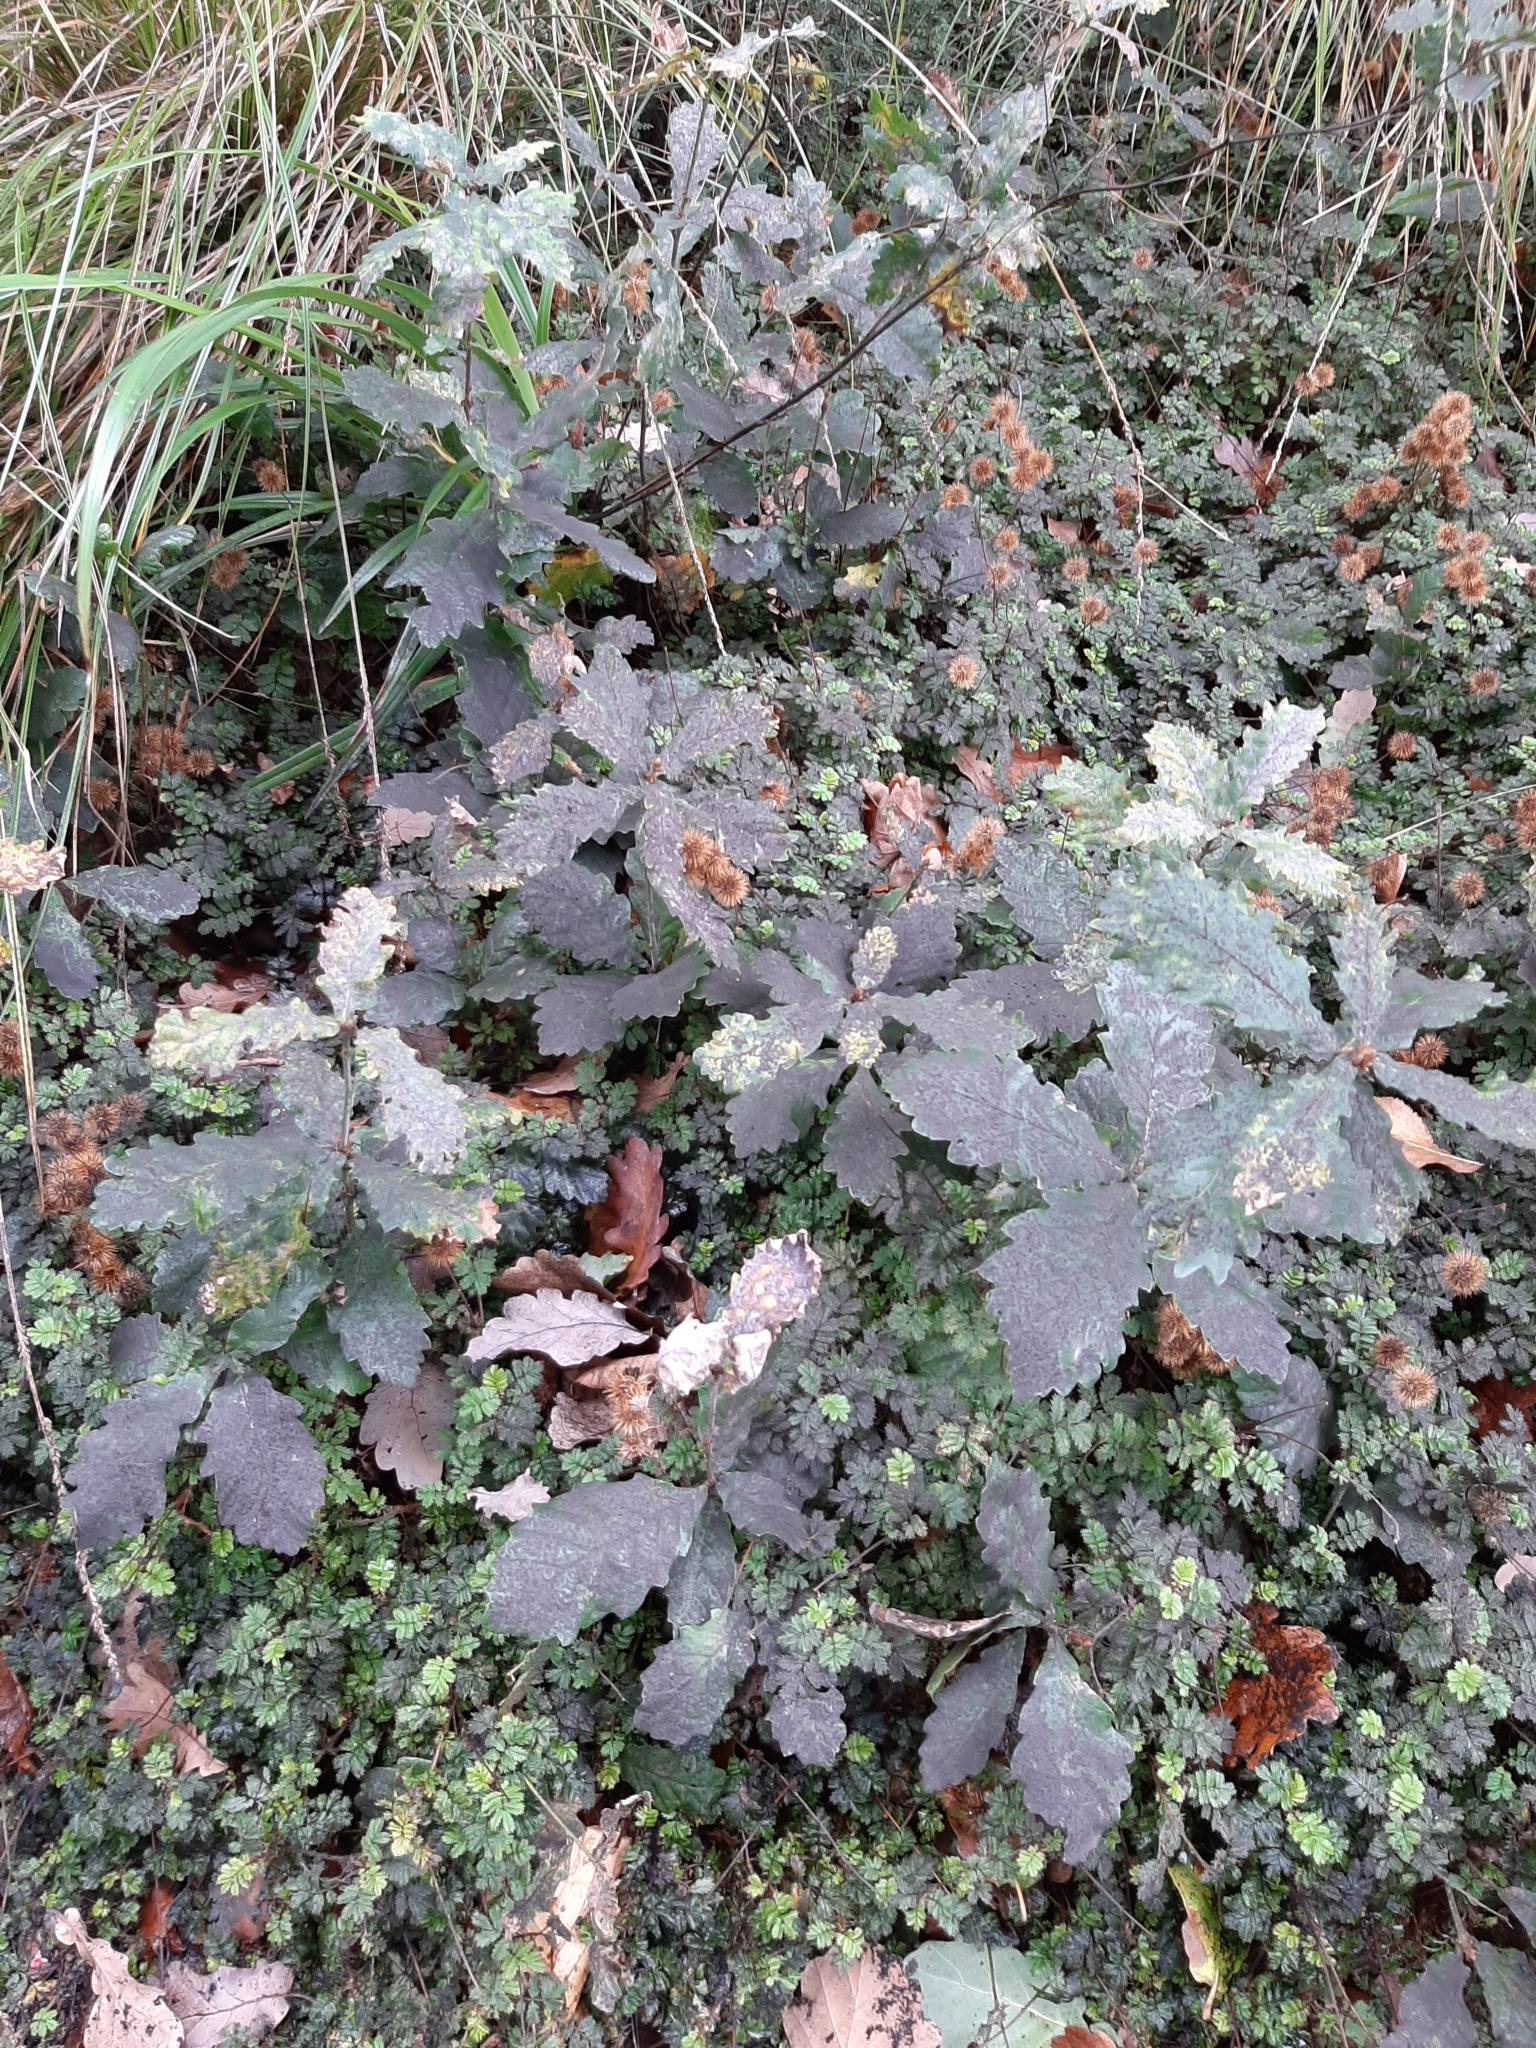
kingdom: Plantae
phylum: Tracheophyta
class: Magnoliopsida
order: Fagales
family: Fagaceae
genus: Quercus
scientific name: Quercus robur
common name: Pedunculate oak
